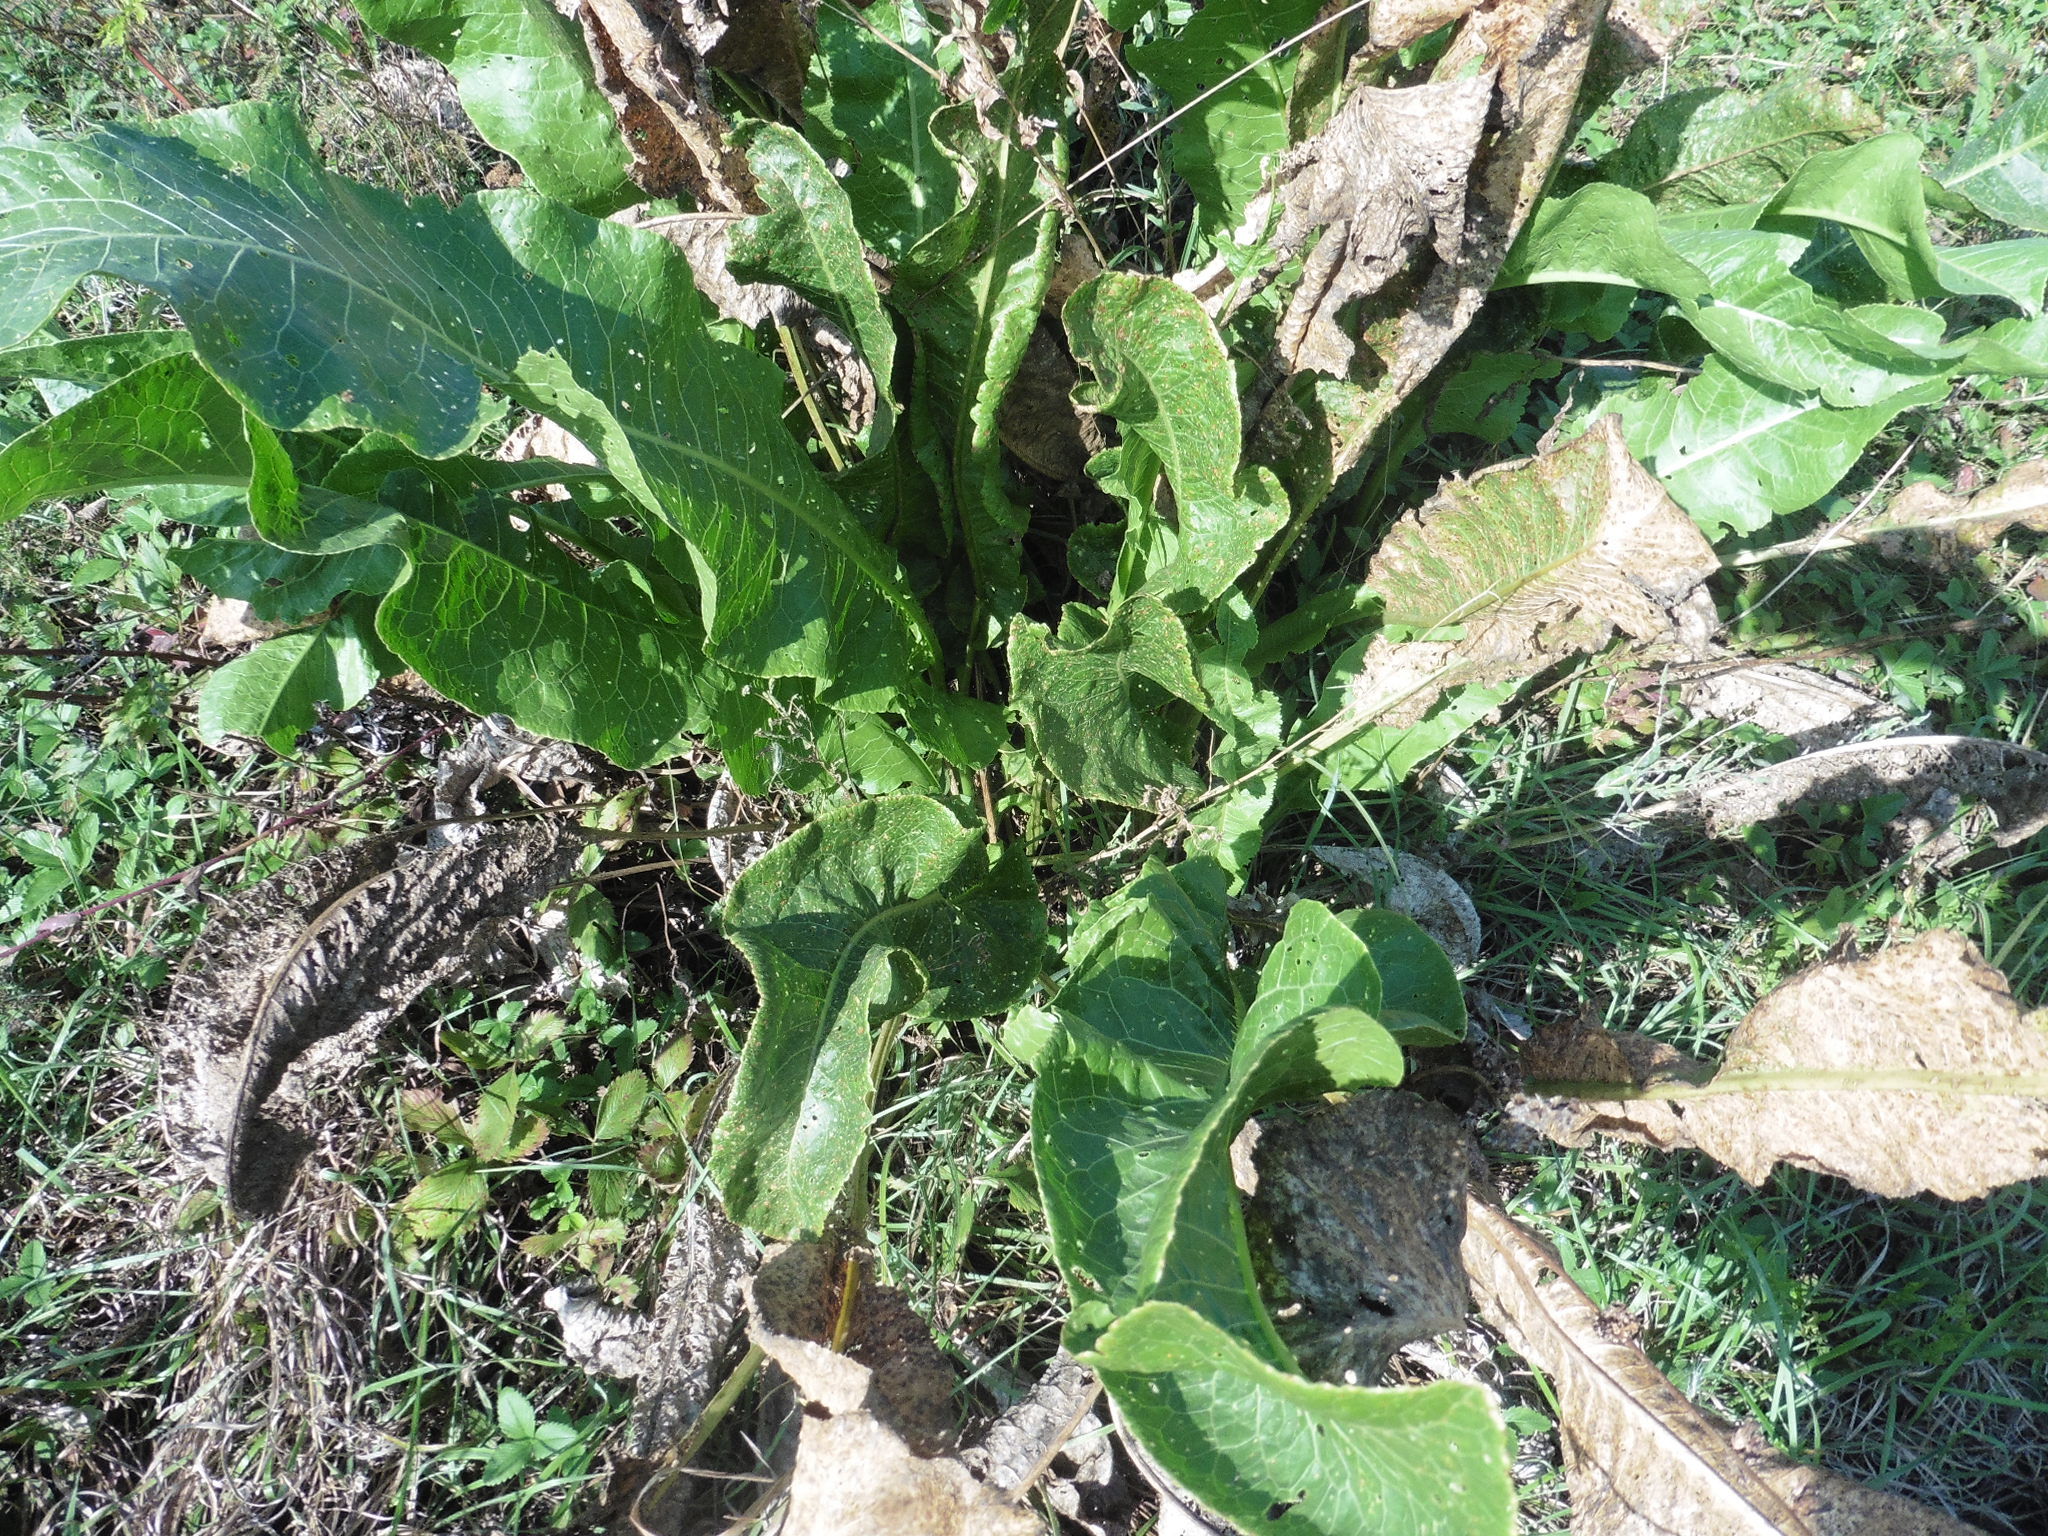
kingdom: Plantae
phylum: Tracheophyta
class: Magnoliopsida
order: Brassicales
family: Brassicaceae
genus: Armoracia
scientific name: Armoracia rusticana
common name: Horseradish
